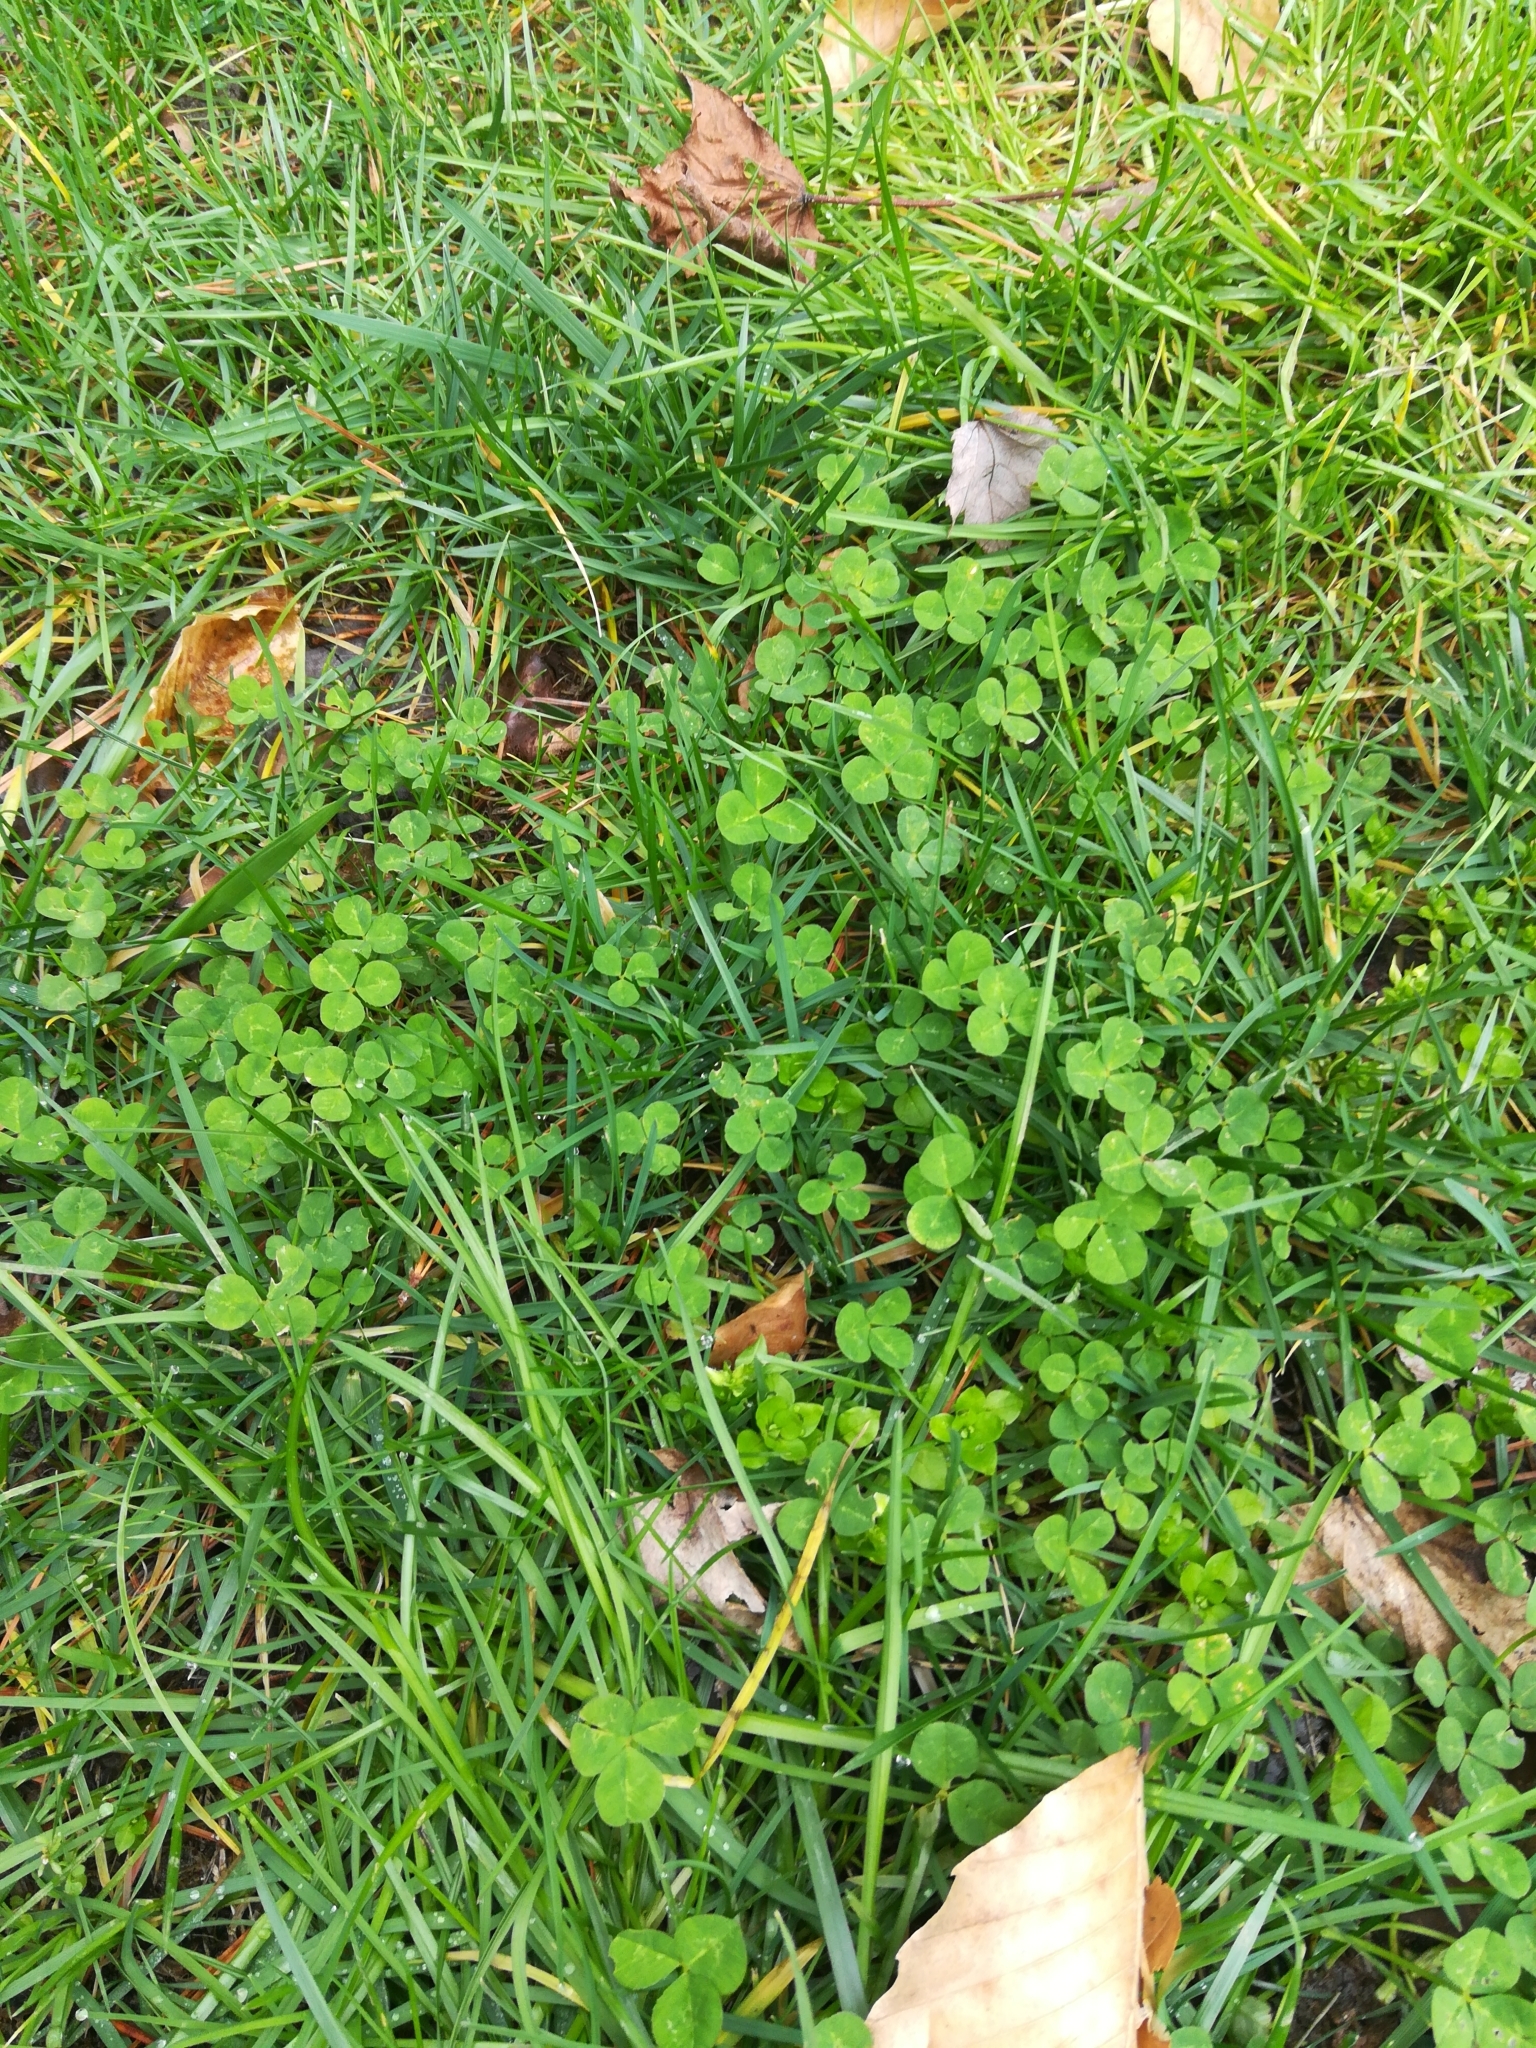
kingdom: Plantae
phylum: Tracheophyta
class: Magnoliopsida
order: Fabales
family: Fabaceae
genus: Trifolium
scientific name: Trifolium repens
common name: White clover
